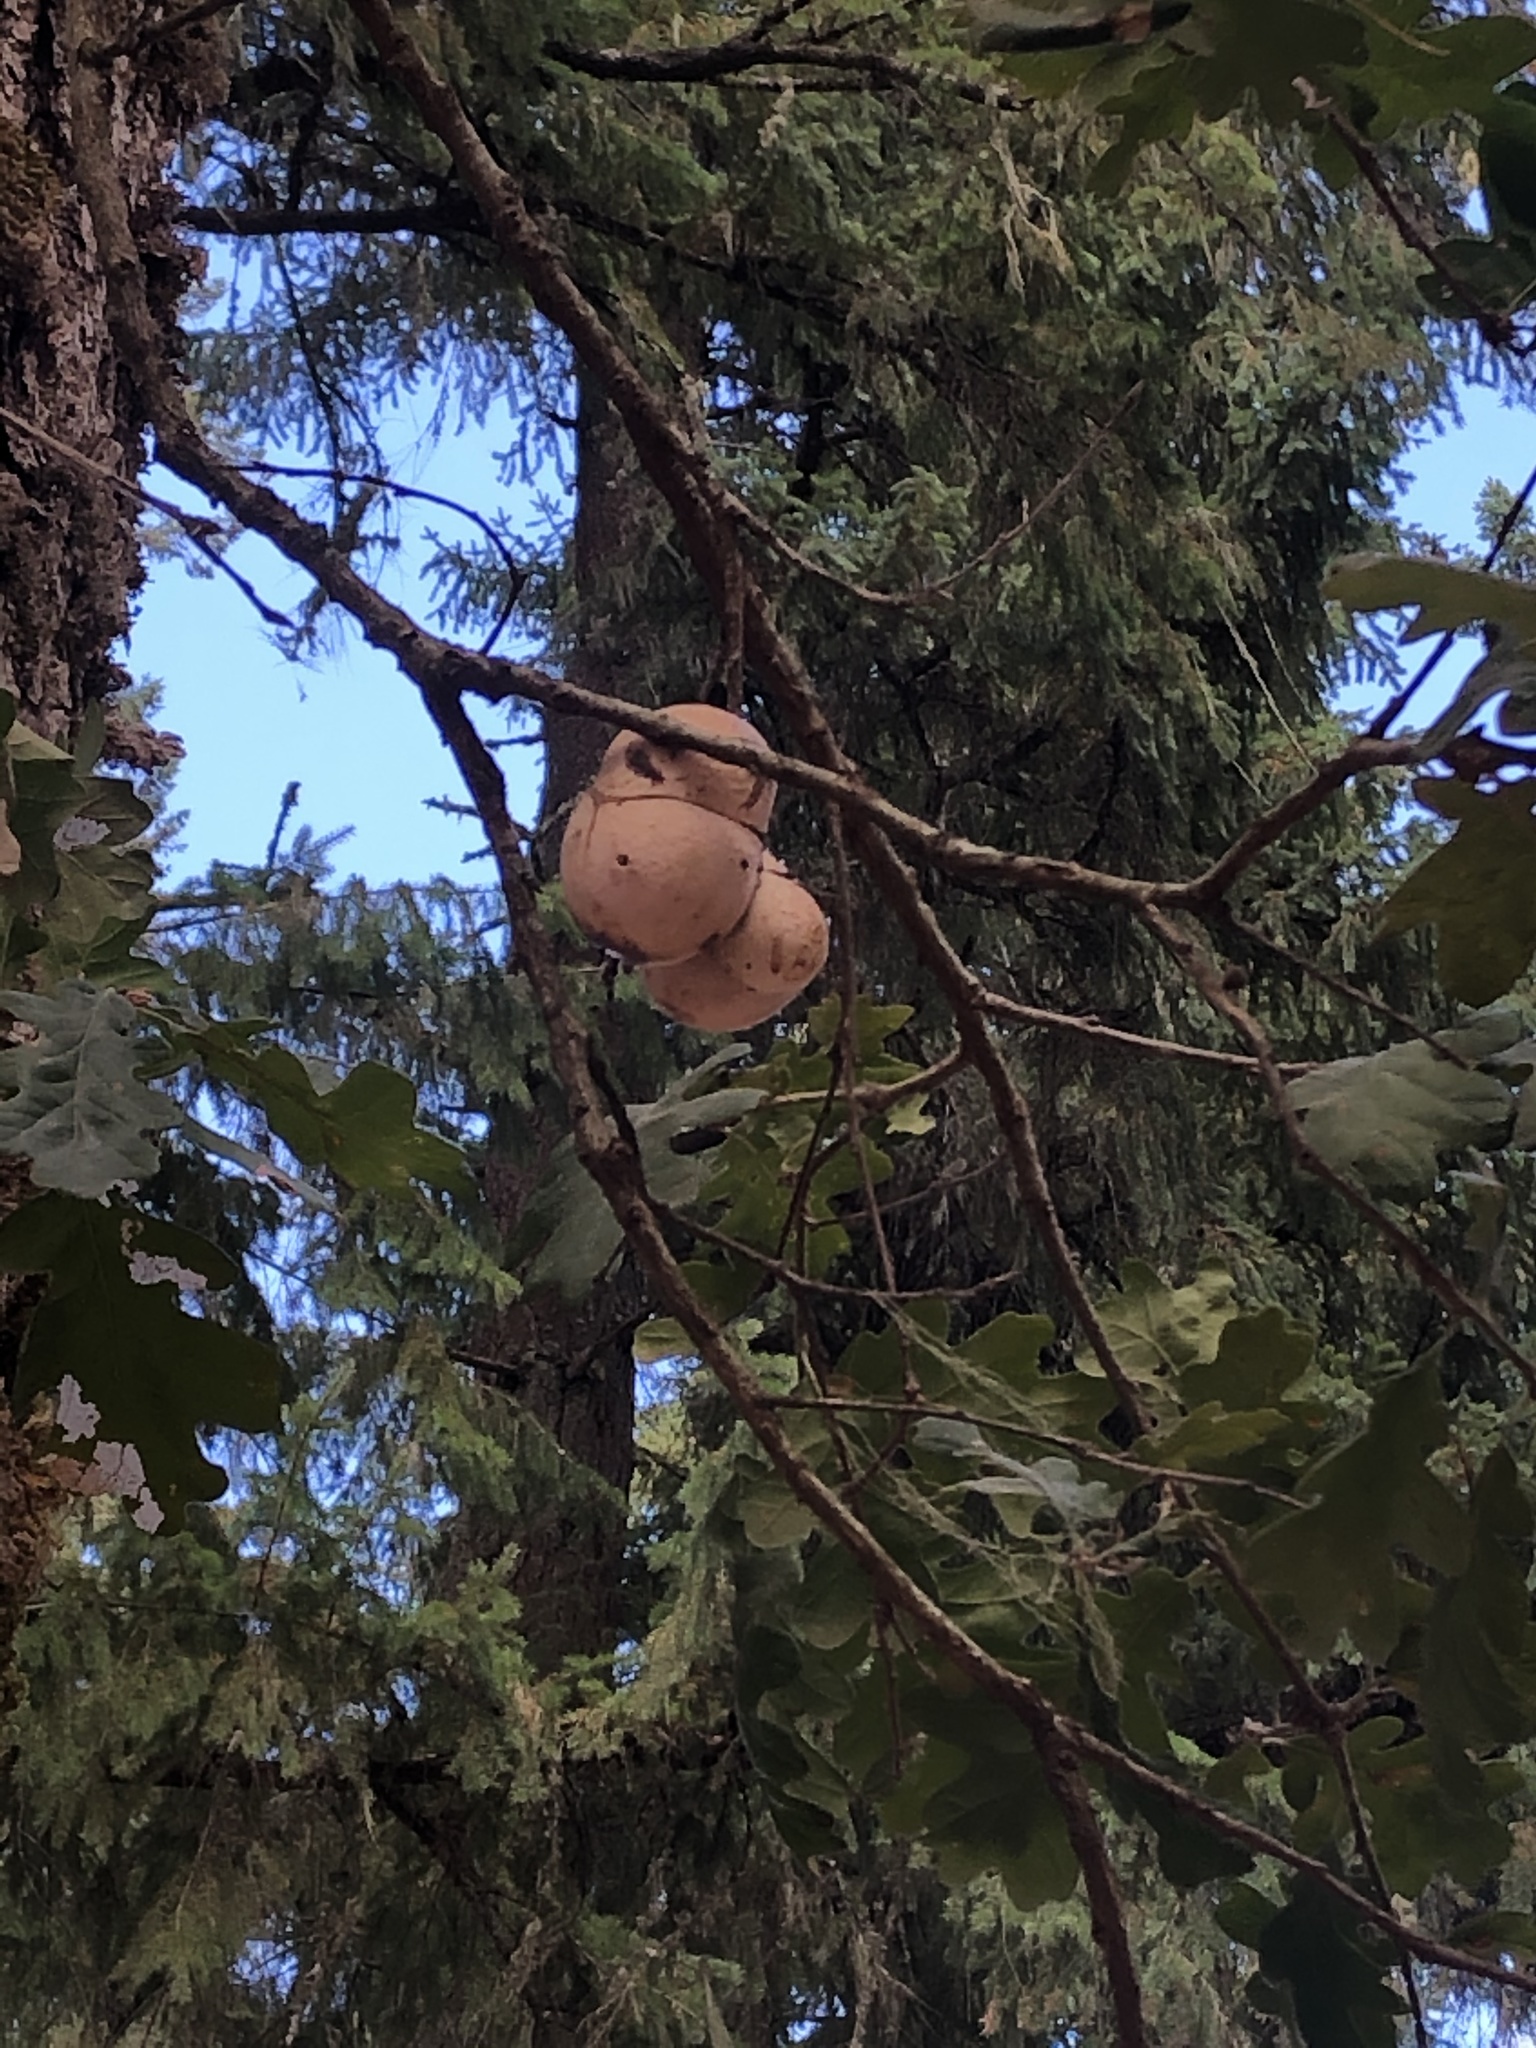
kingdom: Animalia
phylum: Arthropoda
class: Insecta
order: Hymenoptera
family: Cynipidae
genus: Andricus
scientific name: Andricus quercuscalifornicus
